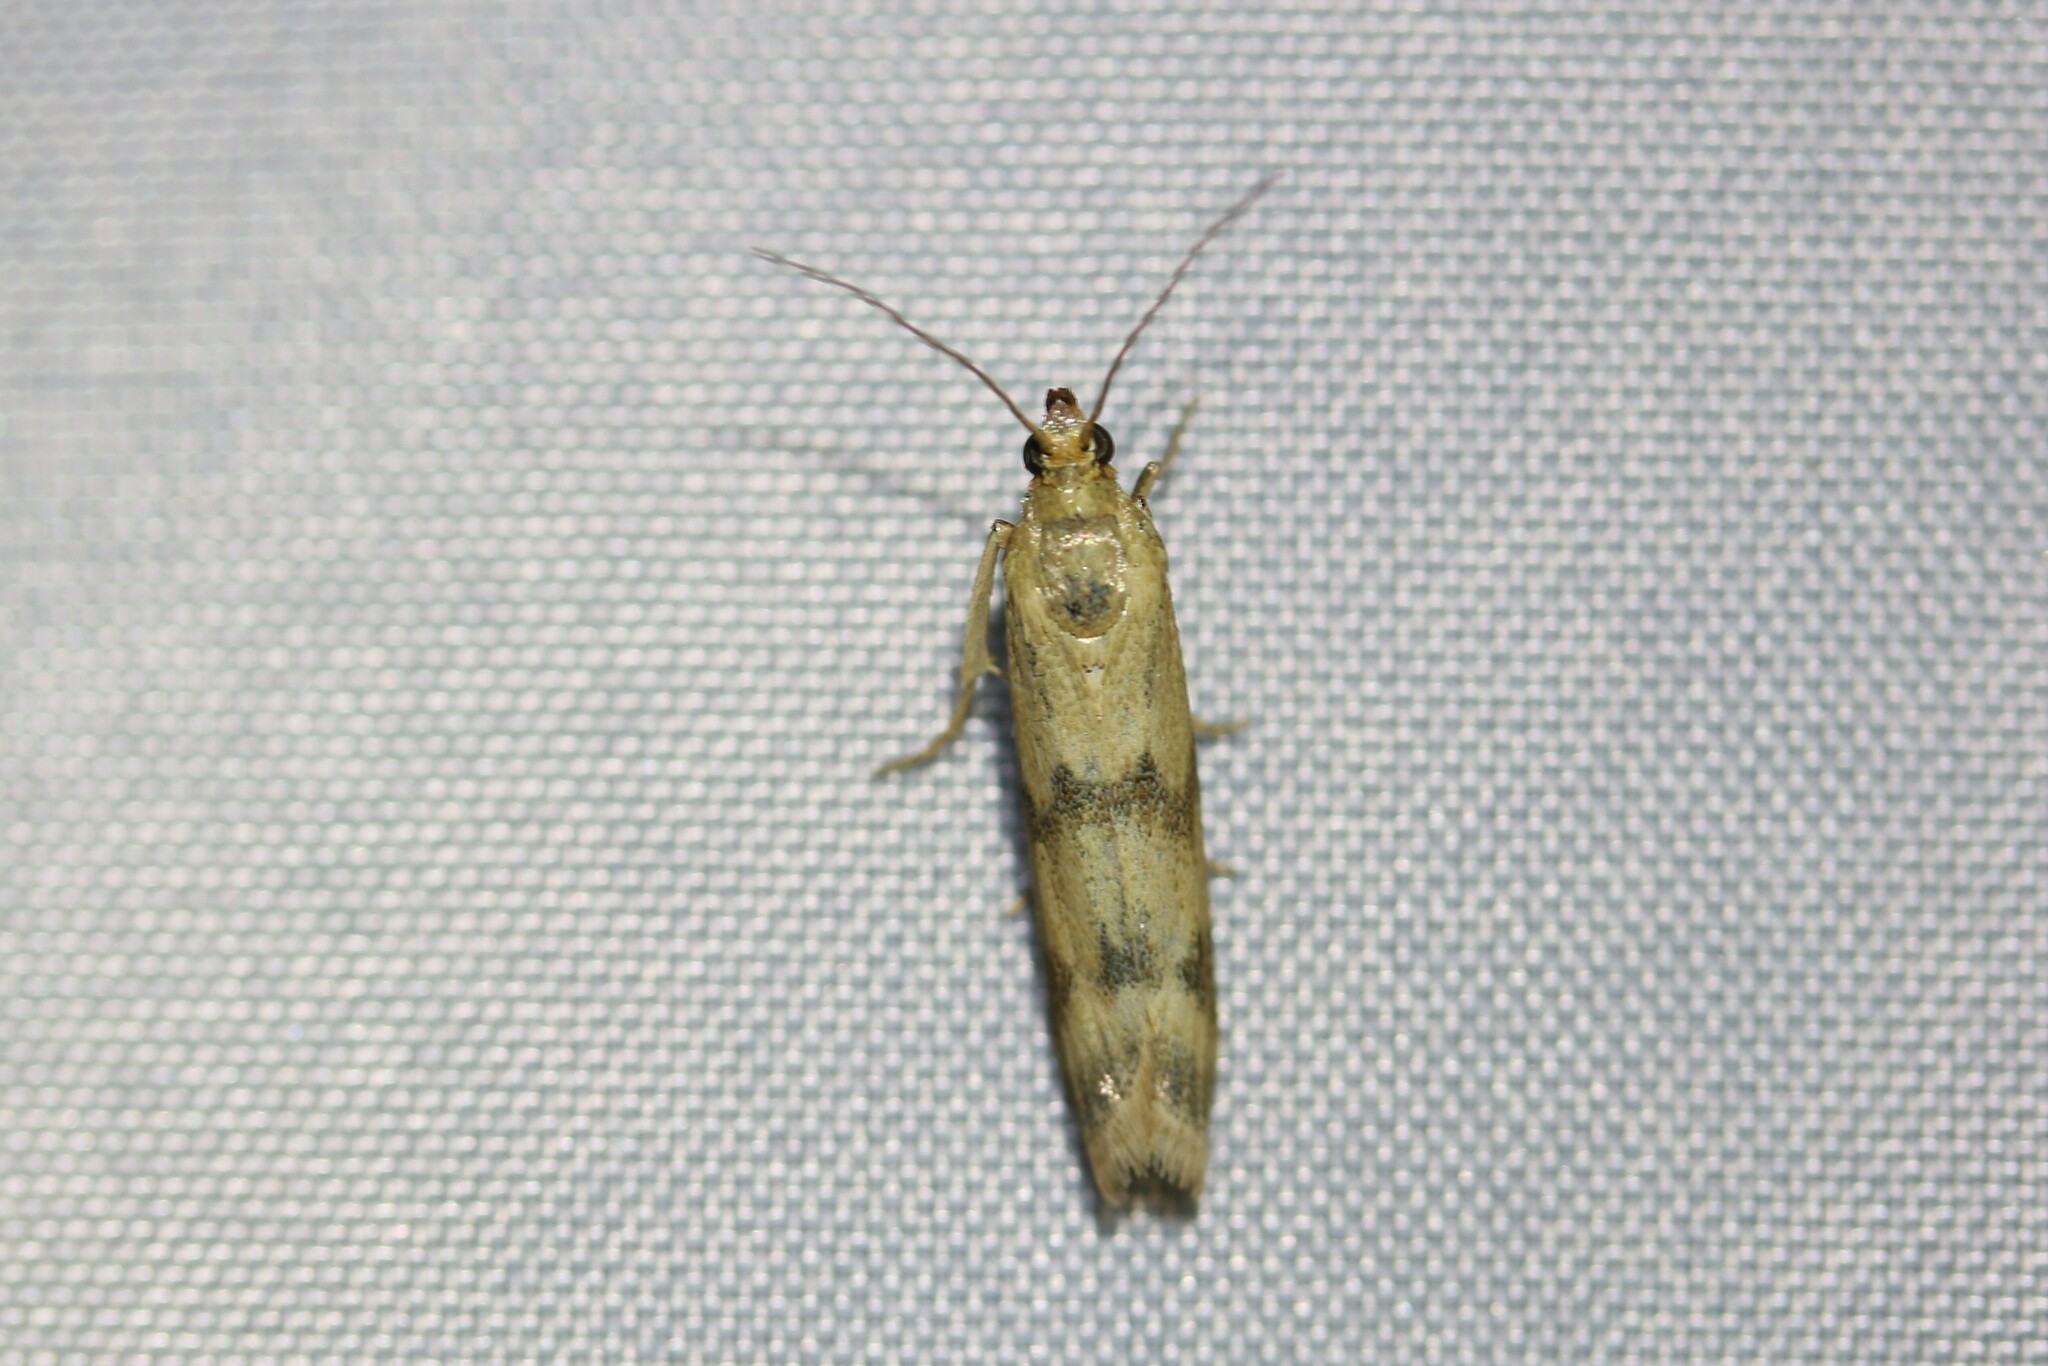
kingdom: Animalia
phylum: Arthropoda
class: Insecta
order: Lepidoptera
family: Pyralidae
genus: Homoeosoma
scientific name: Homoeosoma sinuella
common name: Twin-barred knot-horn
